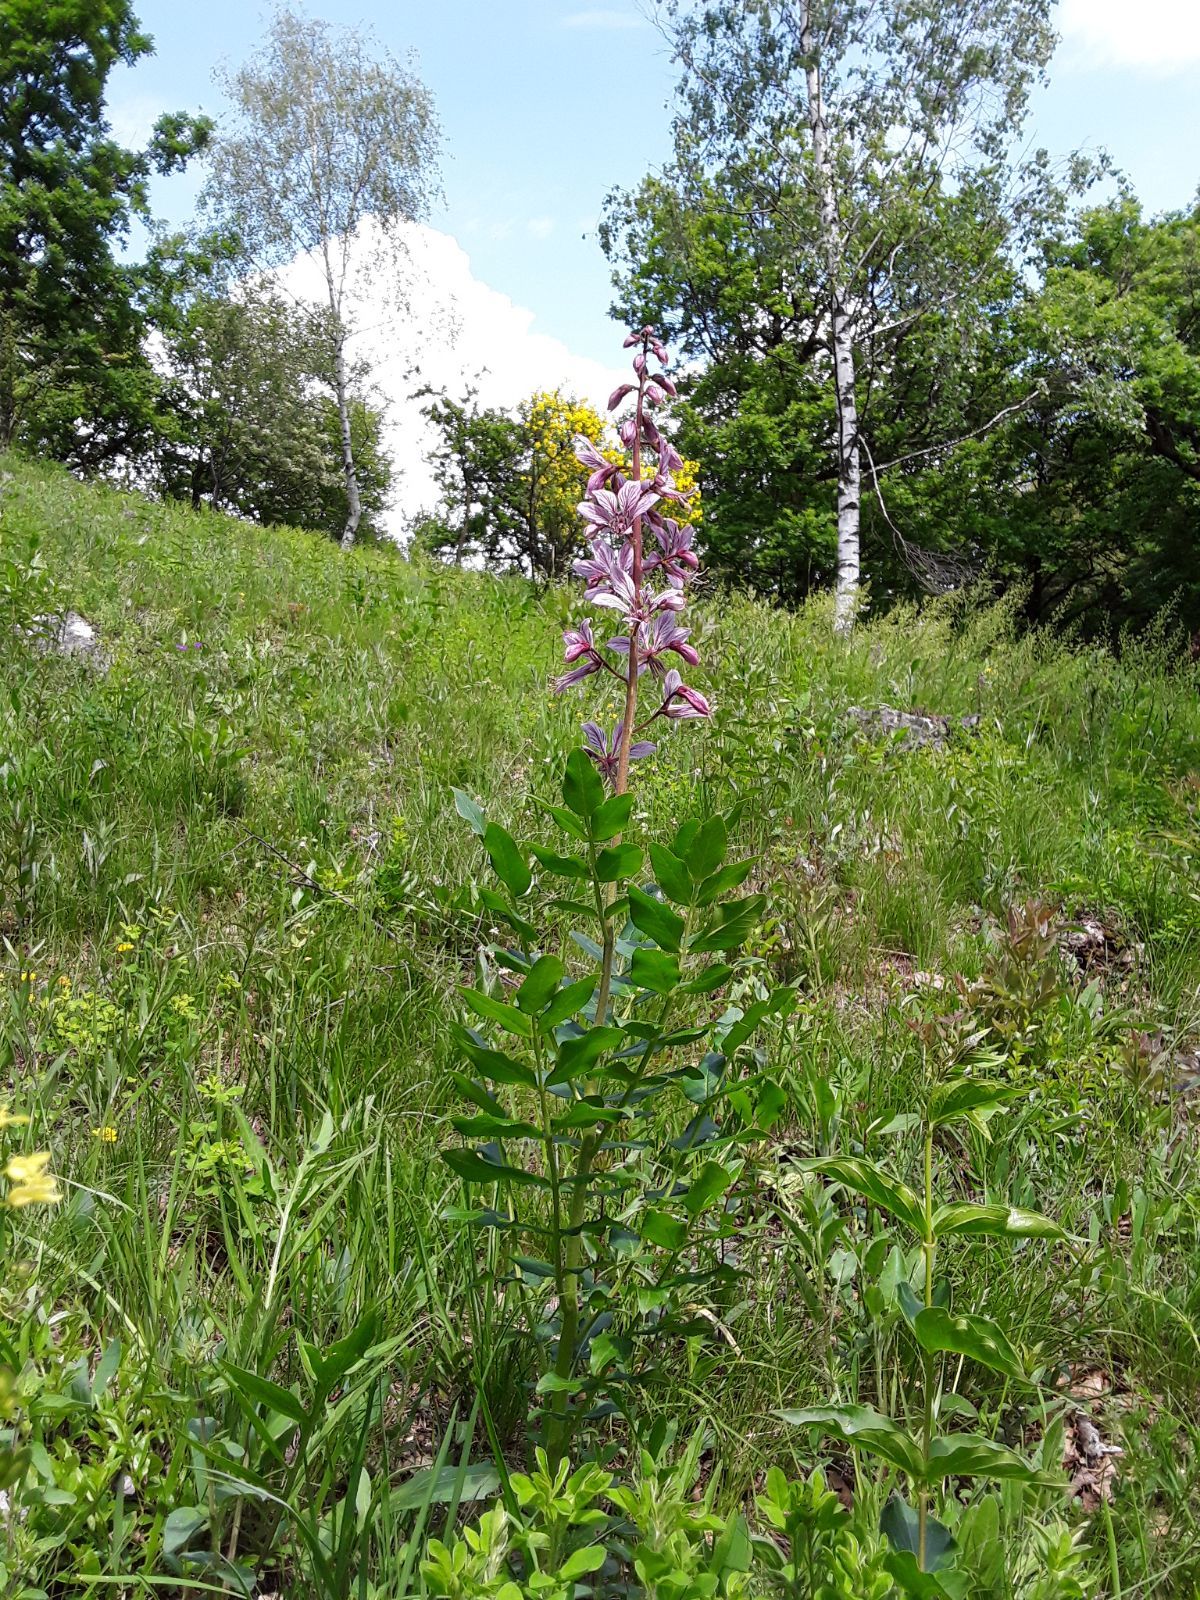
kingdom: Plantae
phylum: Tracheophyta
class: Magnoliopsida
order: Sapindales
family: Rutaceae
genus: Dictamnus
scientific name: Dictamnus albus
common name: Gasplant
